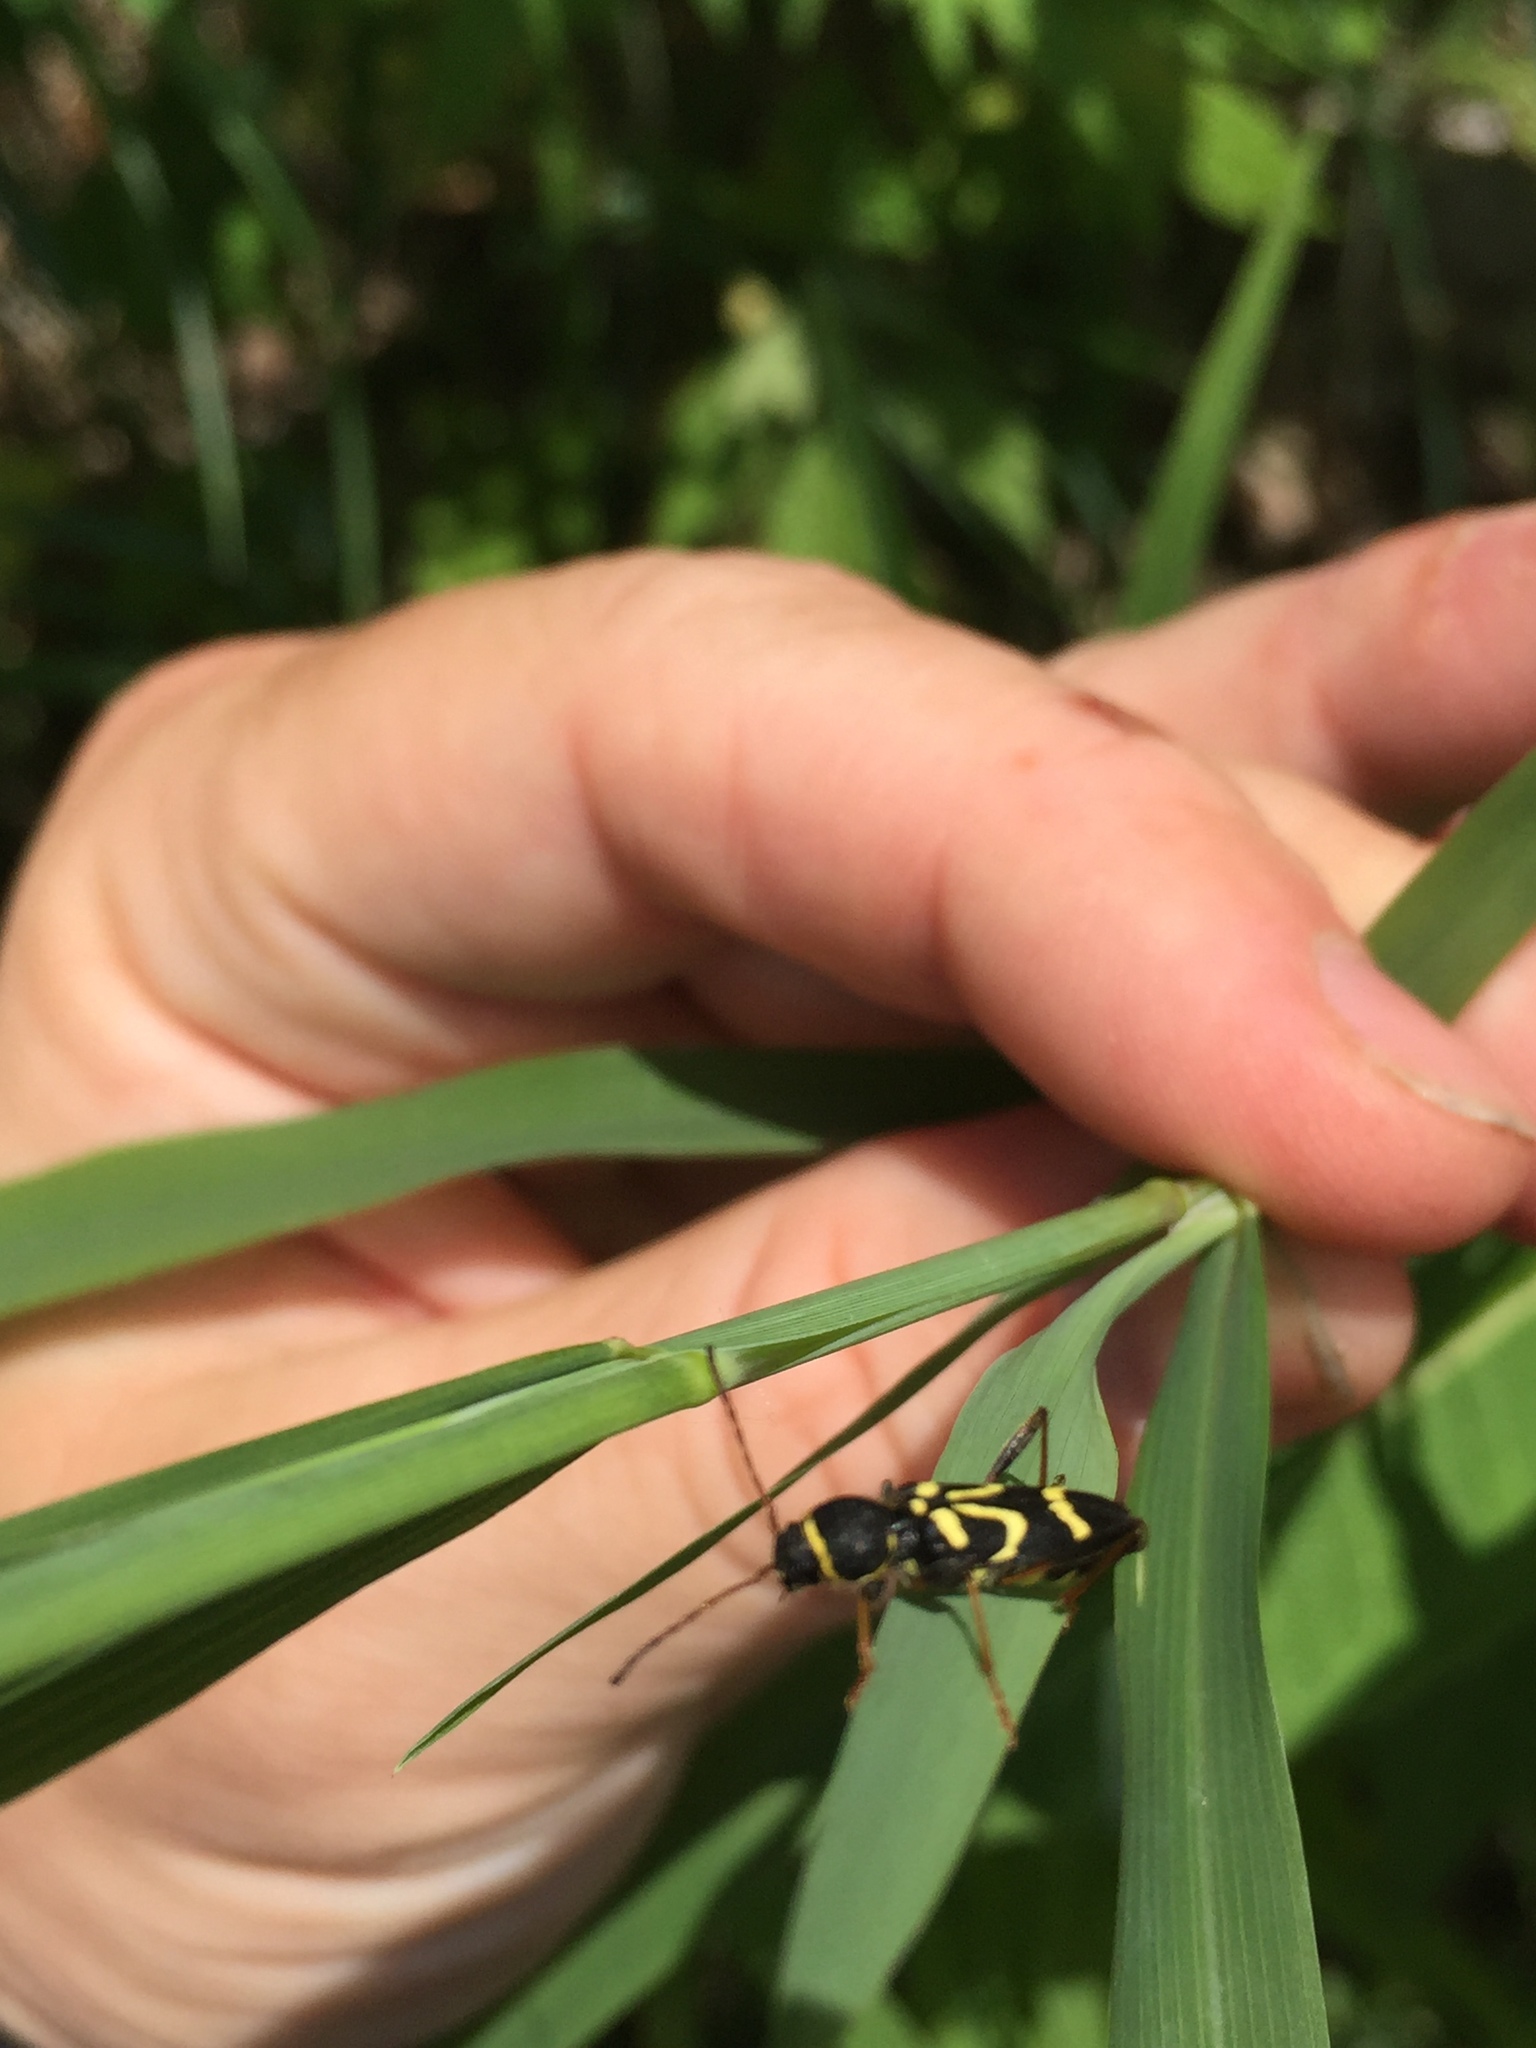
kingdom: Animalia
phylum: Arthropoda
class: Insecta
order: Coleoptera
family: Cerambycidae
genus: Clytus
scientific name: Clytus ruricola
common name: Round-necked longhorn beetle
